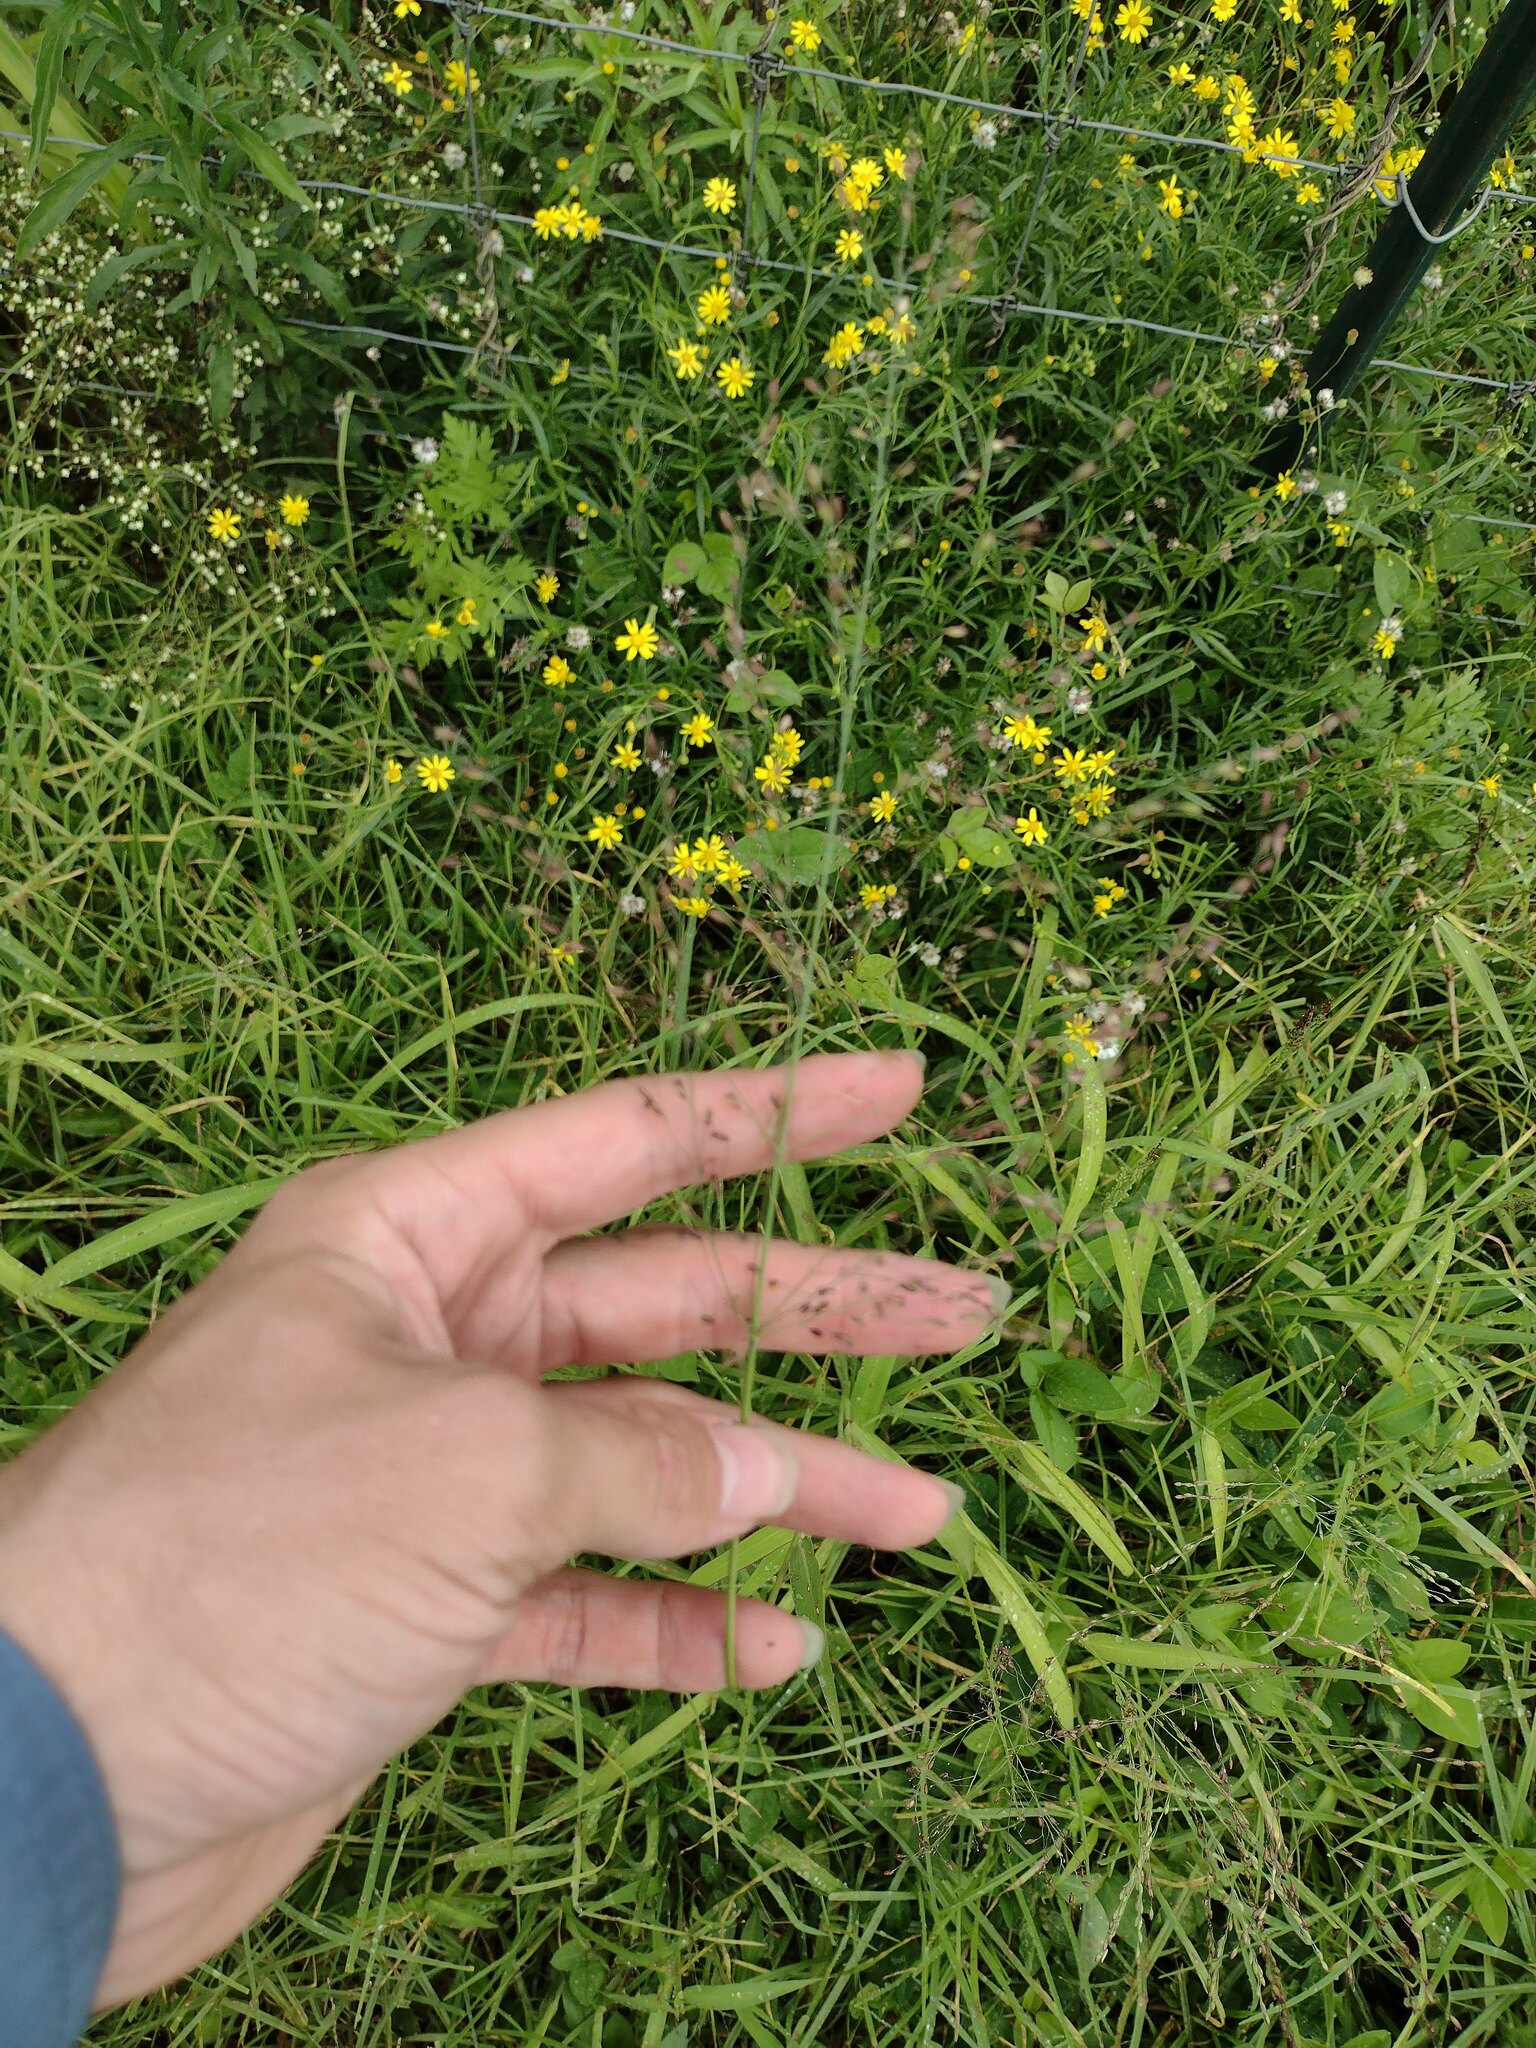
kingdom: Plantae
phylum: Tracheophyta
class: Liliopsida
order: Poales
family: Poaceae
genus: Megathyrsus
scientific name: Megathyrsus maximus
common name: Guineagrass
